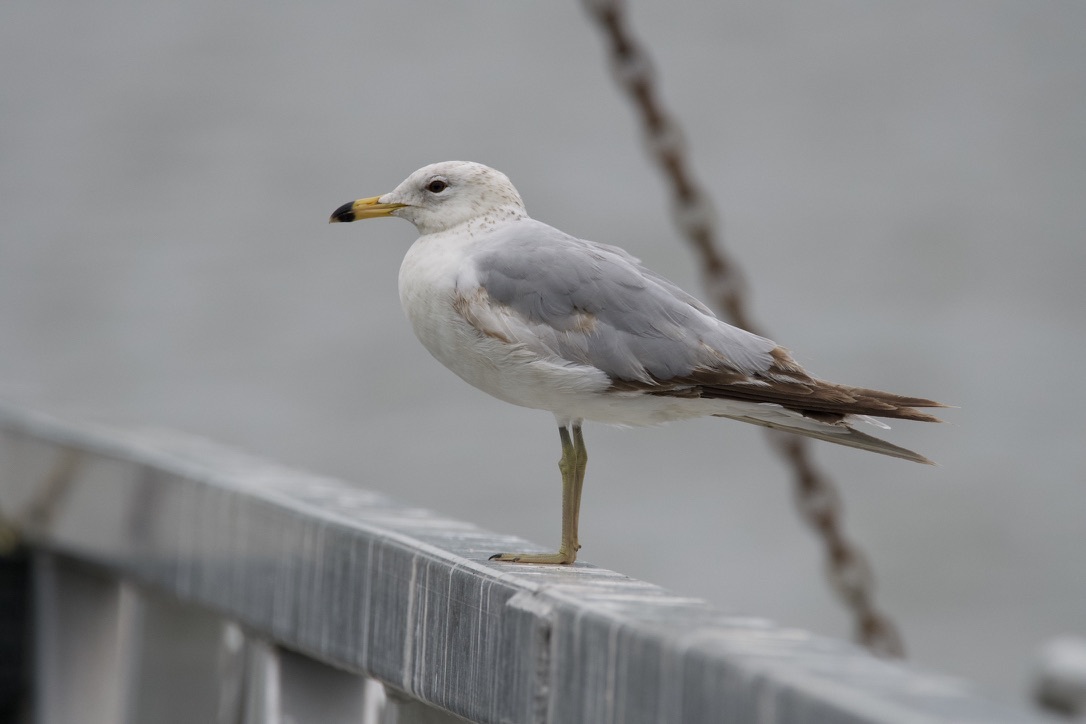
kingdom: Animalia
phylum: Chordata
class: Aves
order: Charadriiformes
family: Laridae
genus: Larus
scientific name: Larus delawarensis
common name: Ring-billed gull
